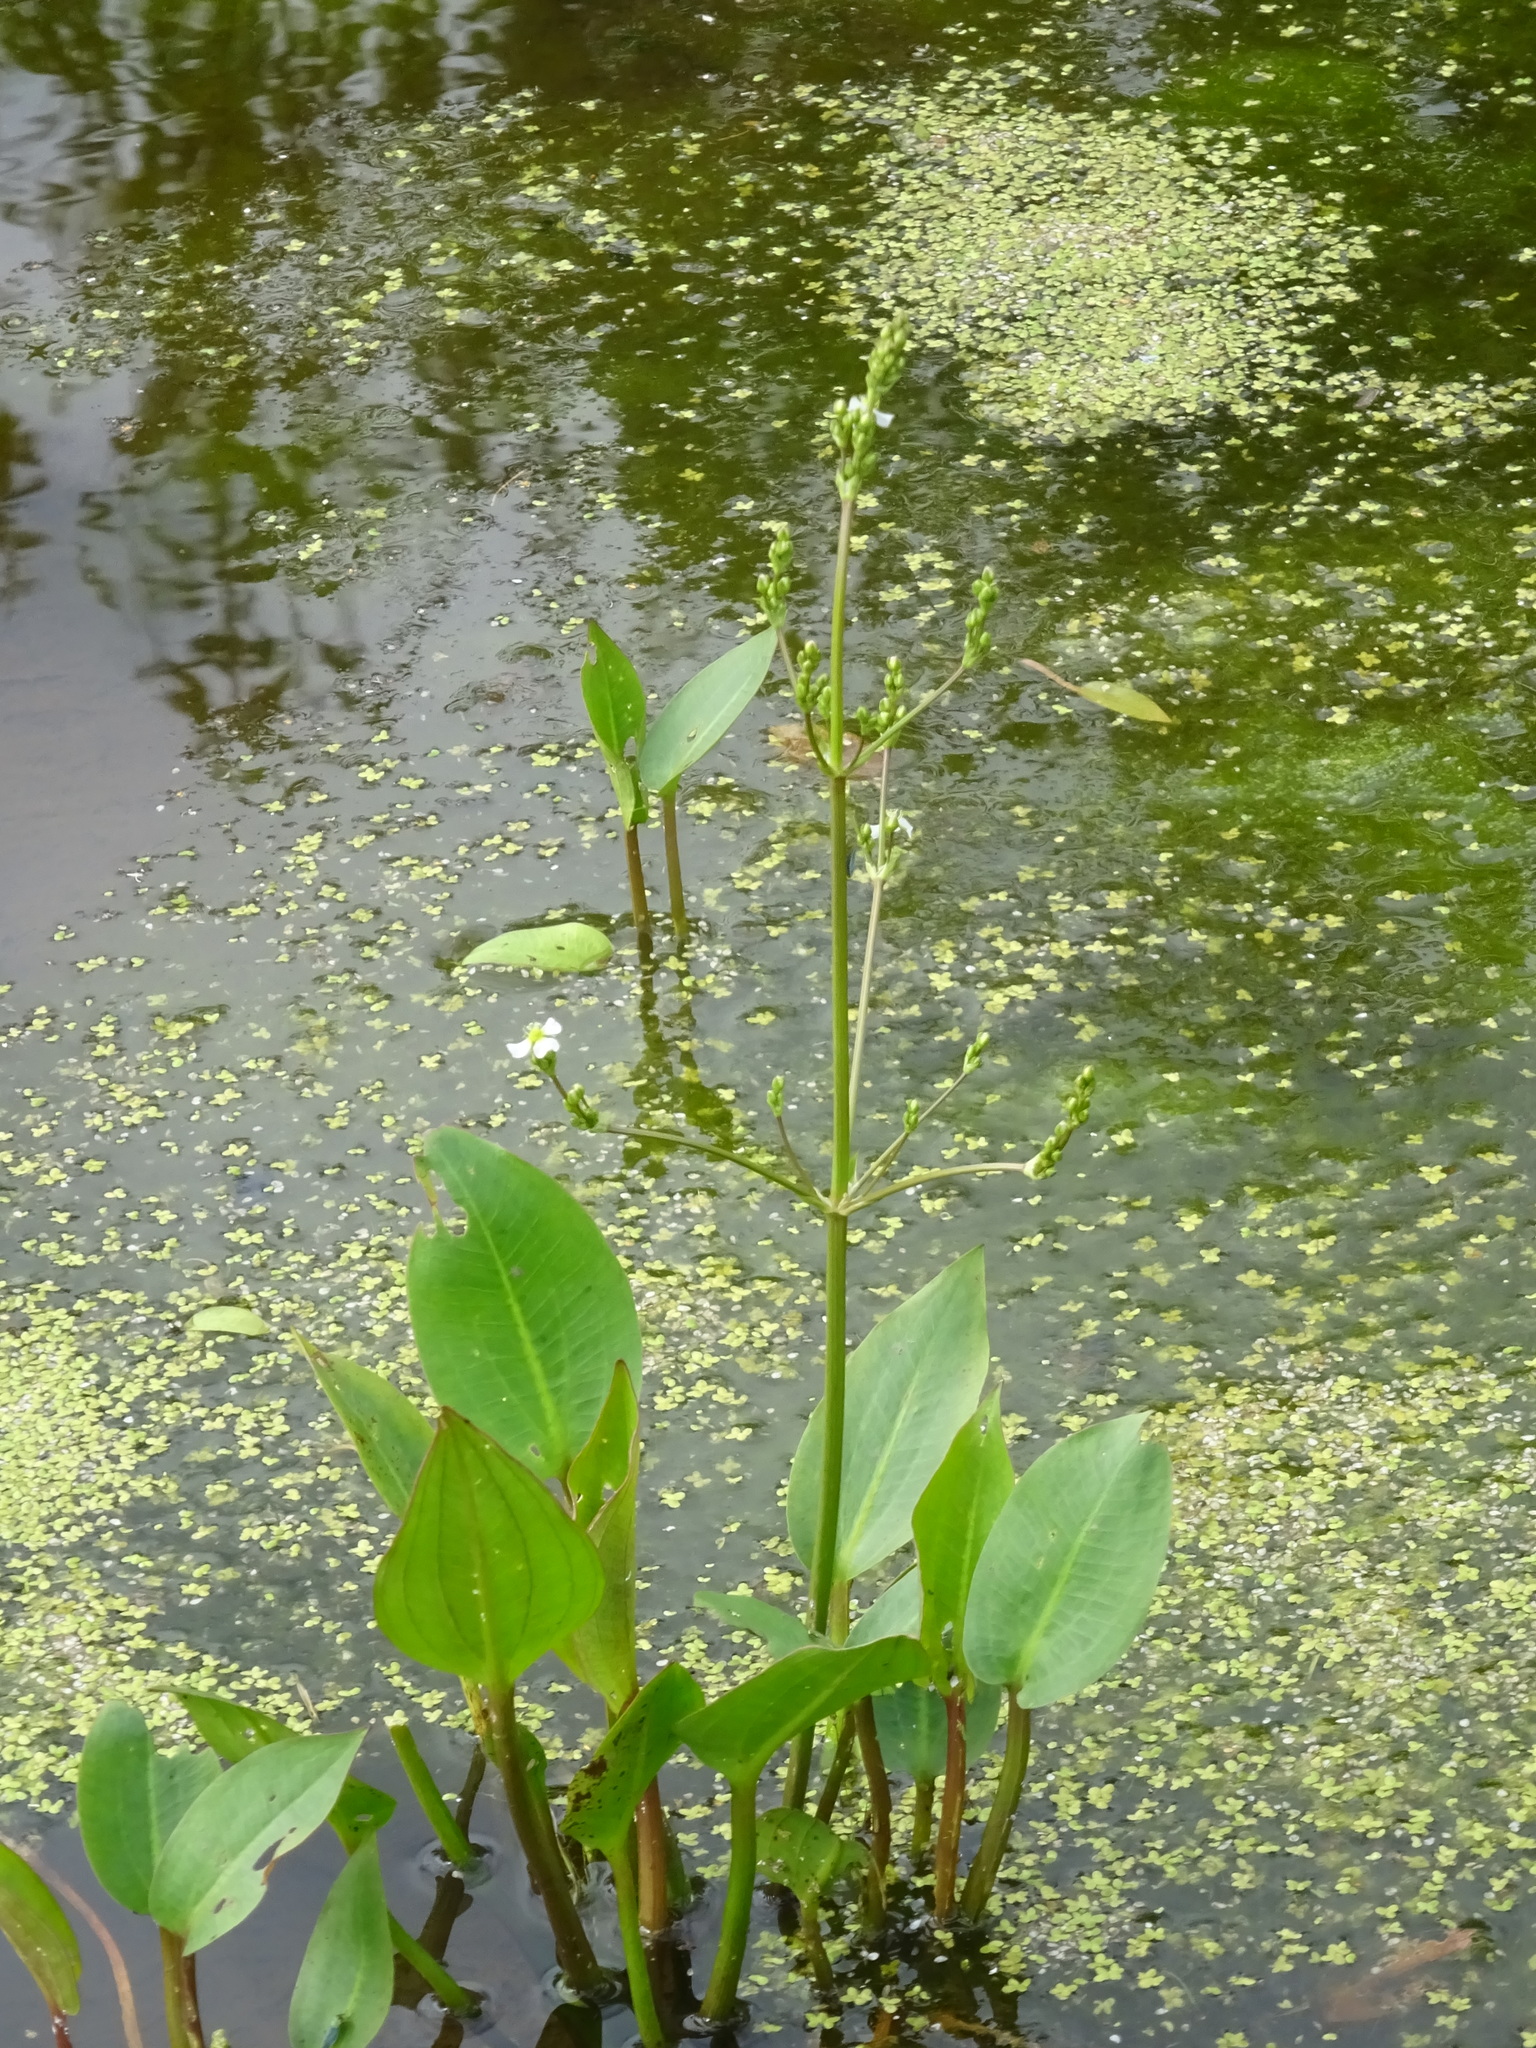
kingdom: Plantae
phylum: Tracheophyta
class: Liliopsida
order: Alismatales
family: Alismataceae
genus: Alisma
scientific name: Alisma plantago-aquatica
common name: Water-plantain
